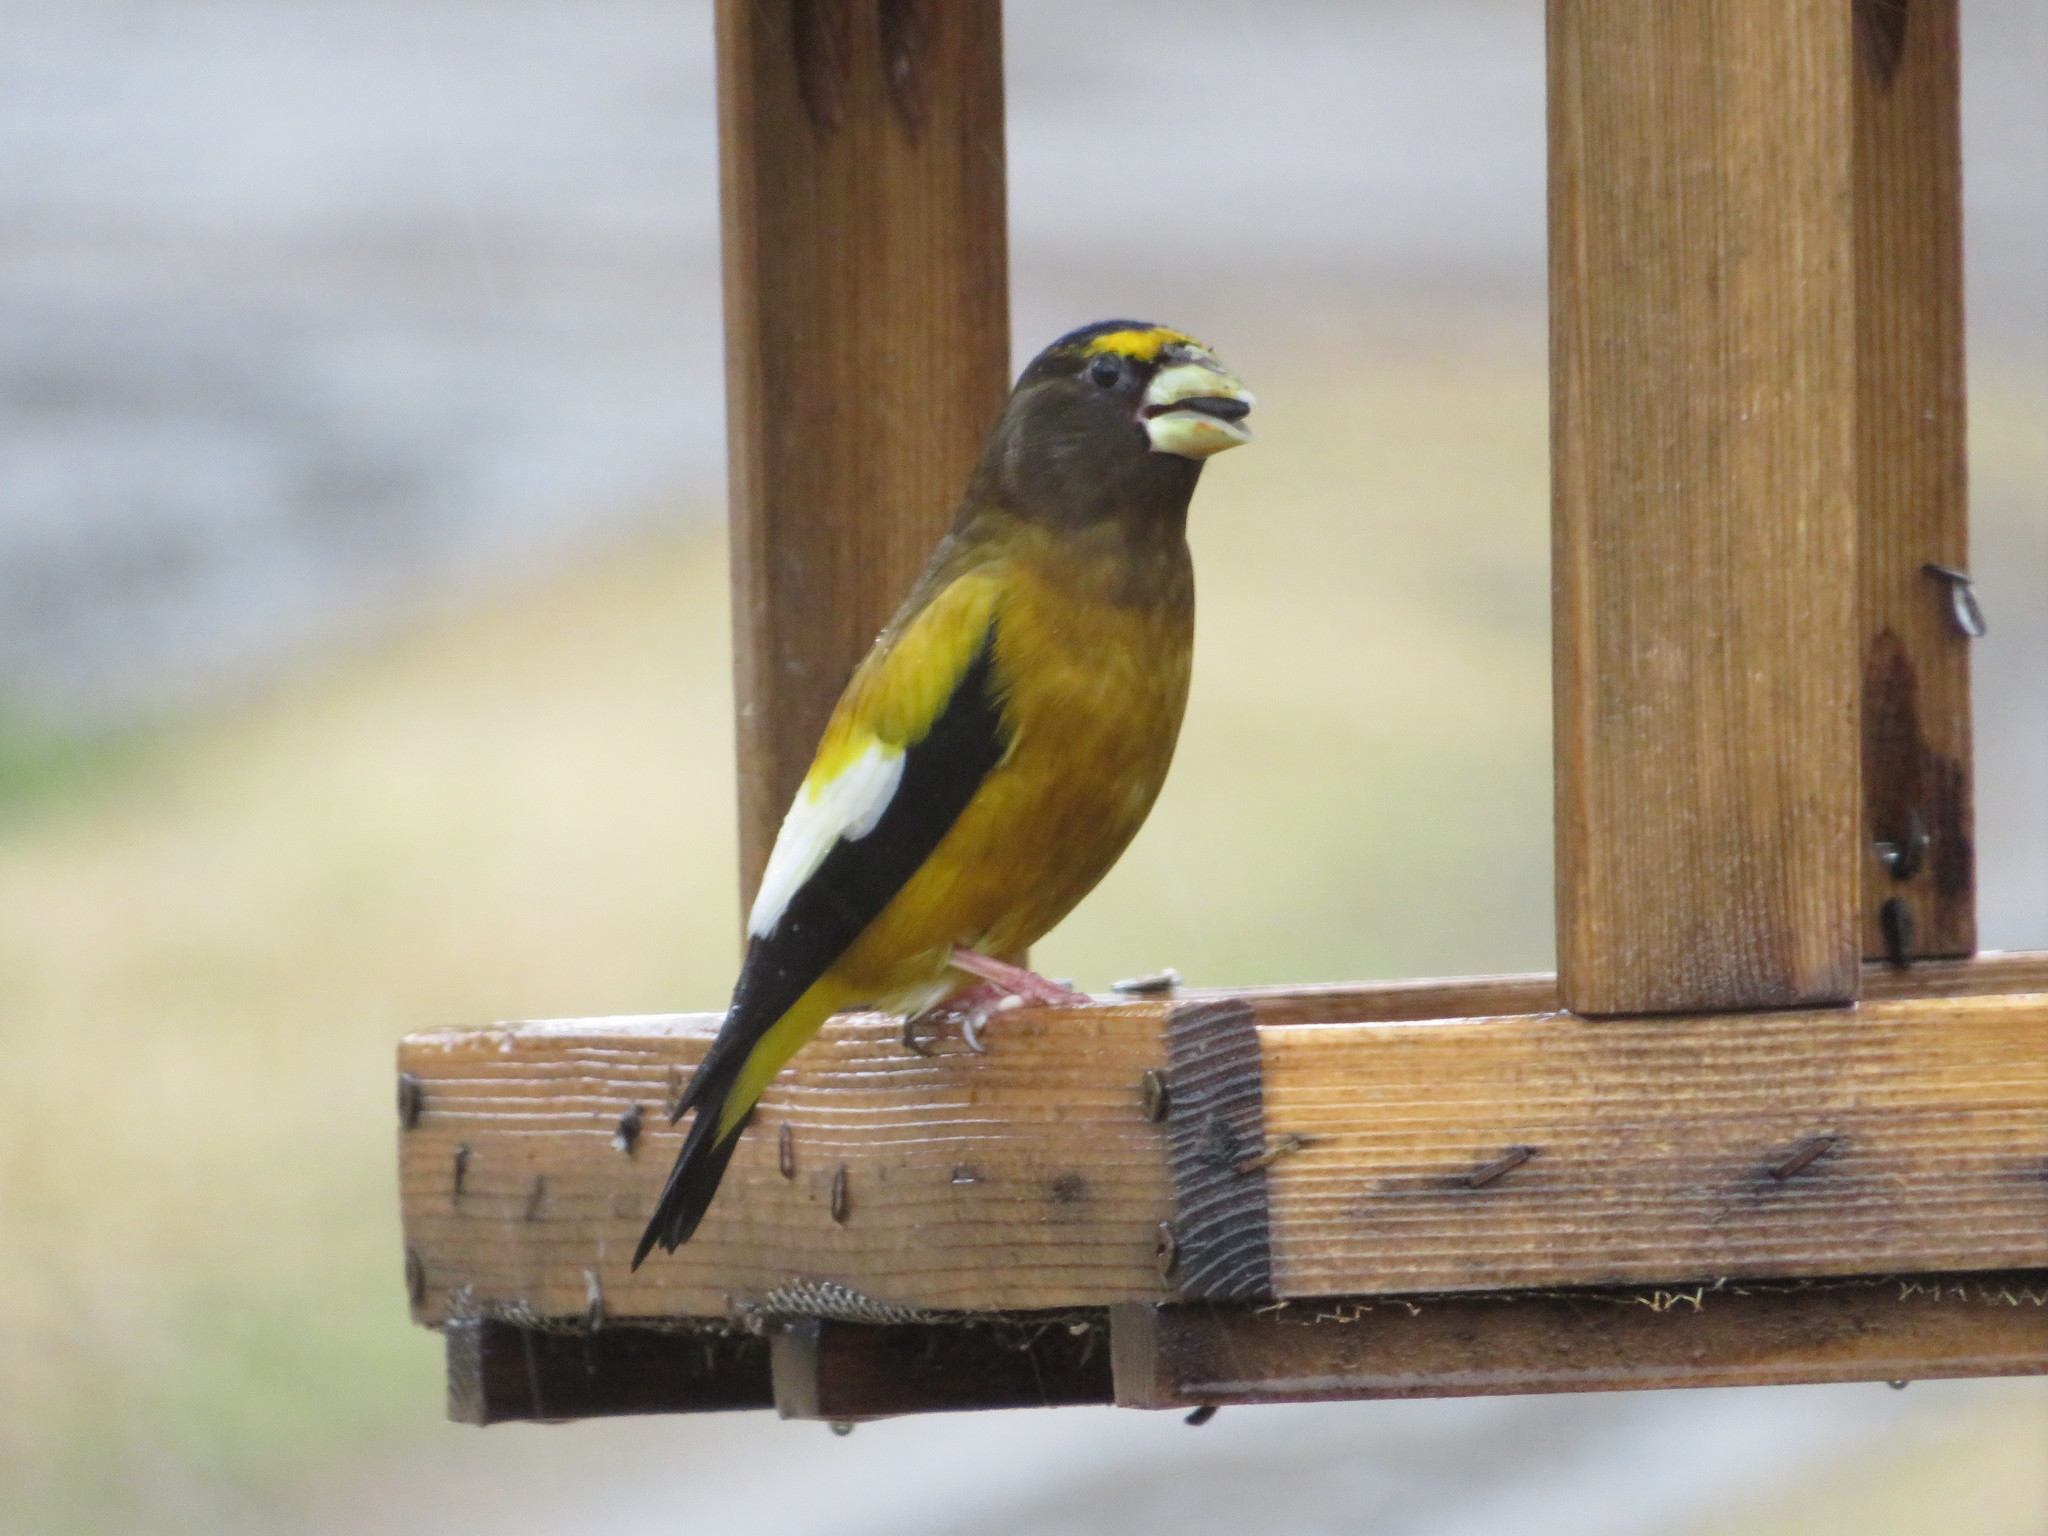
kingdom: Animalia
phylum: Chordata
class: Aves
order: Passeriformes
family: Fringillidae
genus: Hesperiphona
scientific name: Hesperiphona vespertina
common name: Evening grosbeak
